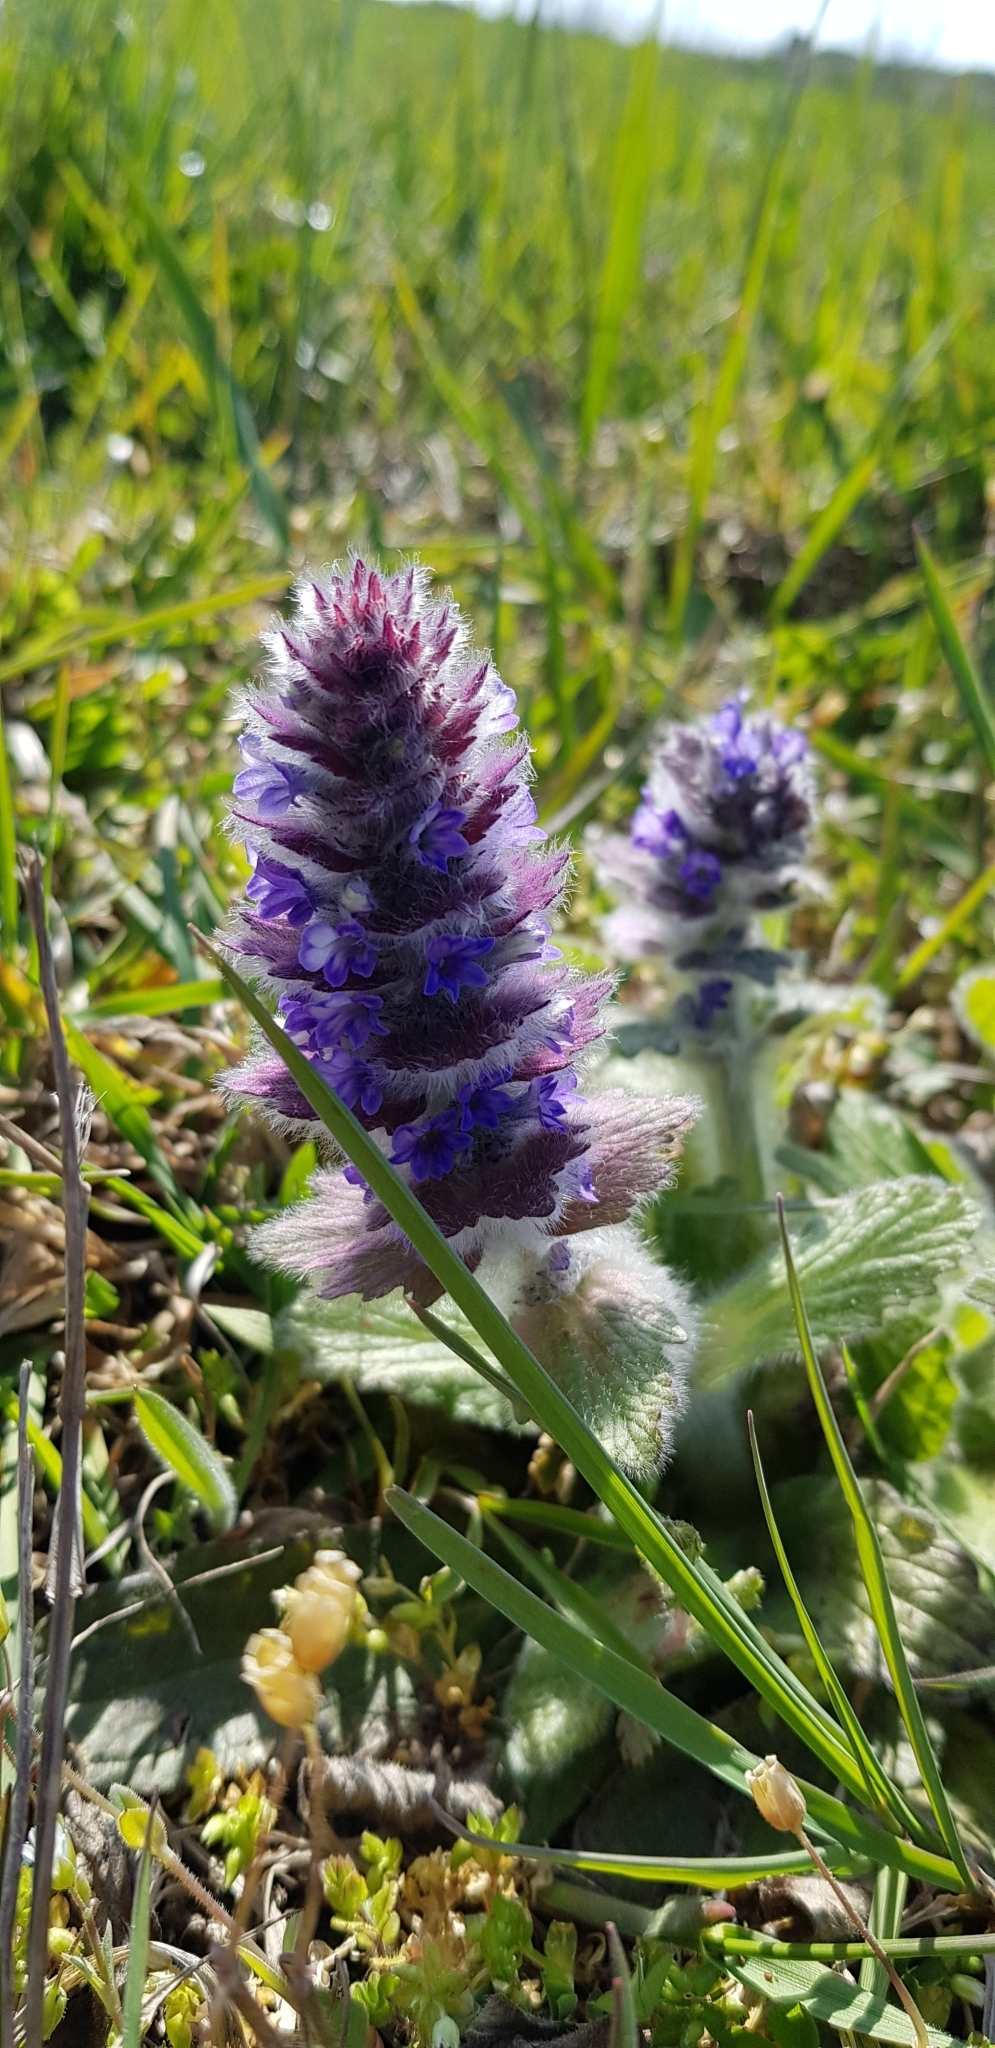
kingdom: Plantae
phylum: Tracheophyta
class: Magnoliopsida
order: Lamiales
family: Lamiaceae
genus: Ajuga
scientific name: Ajuga orientalis
